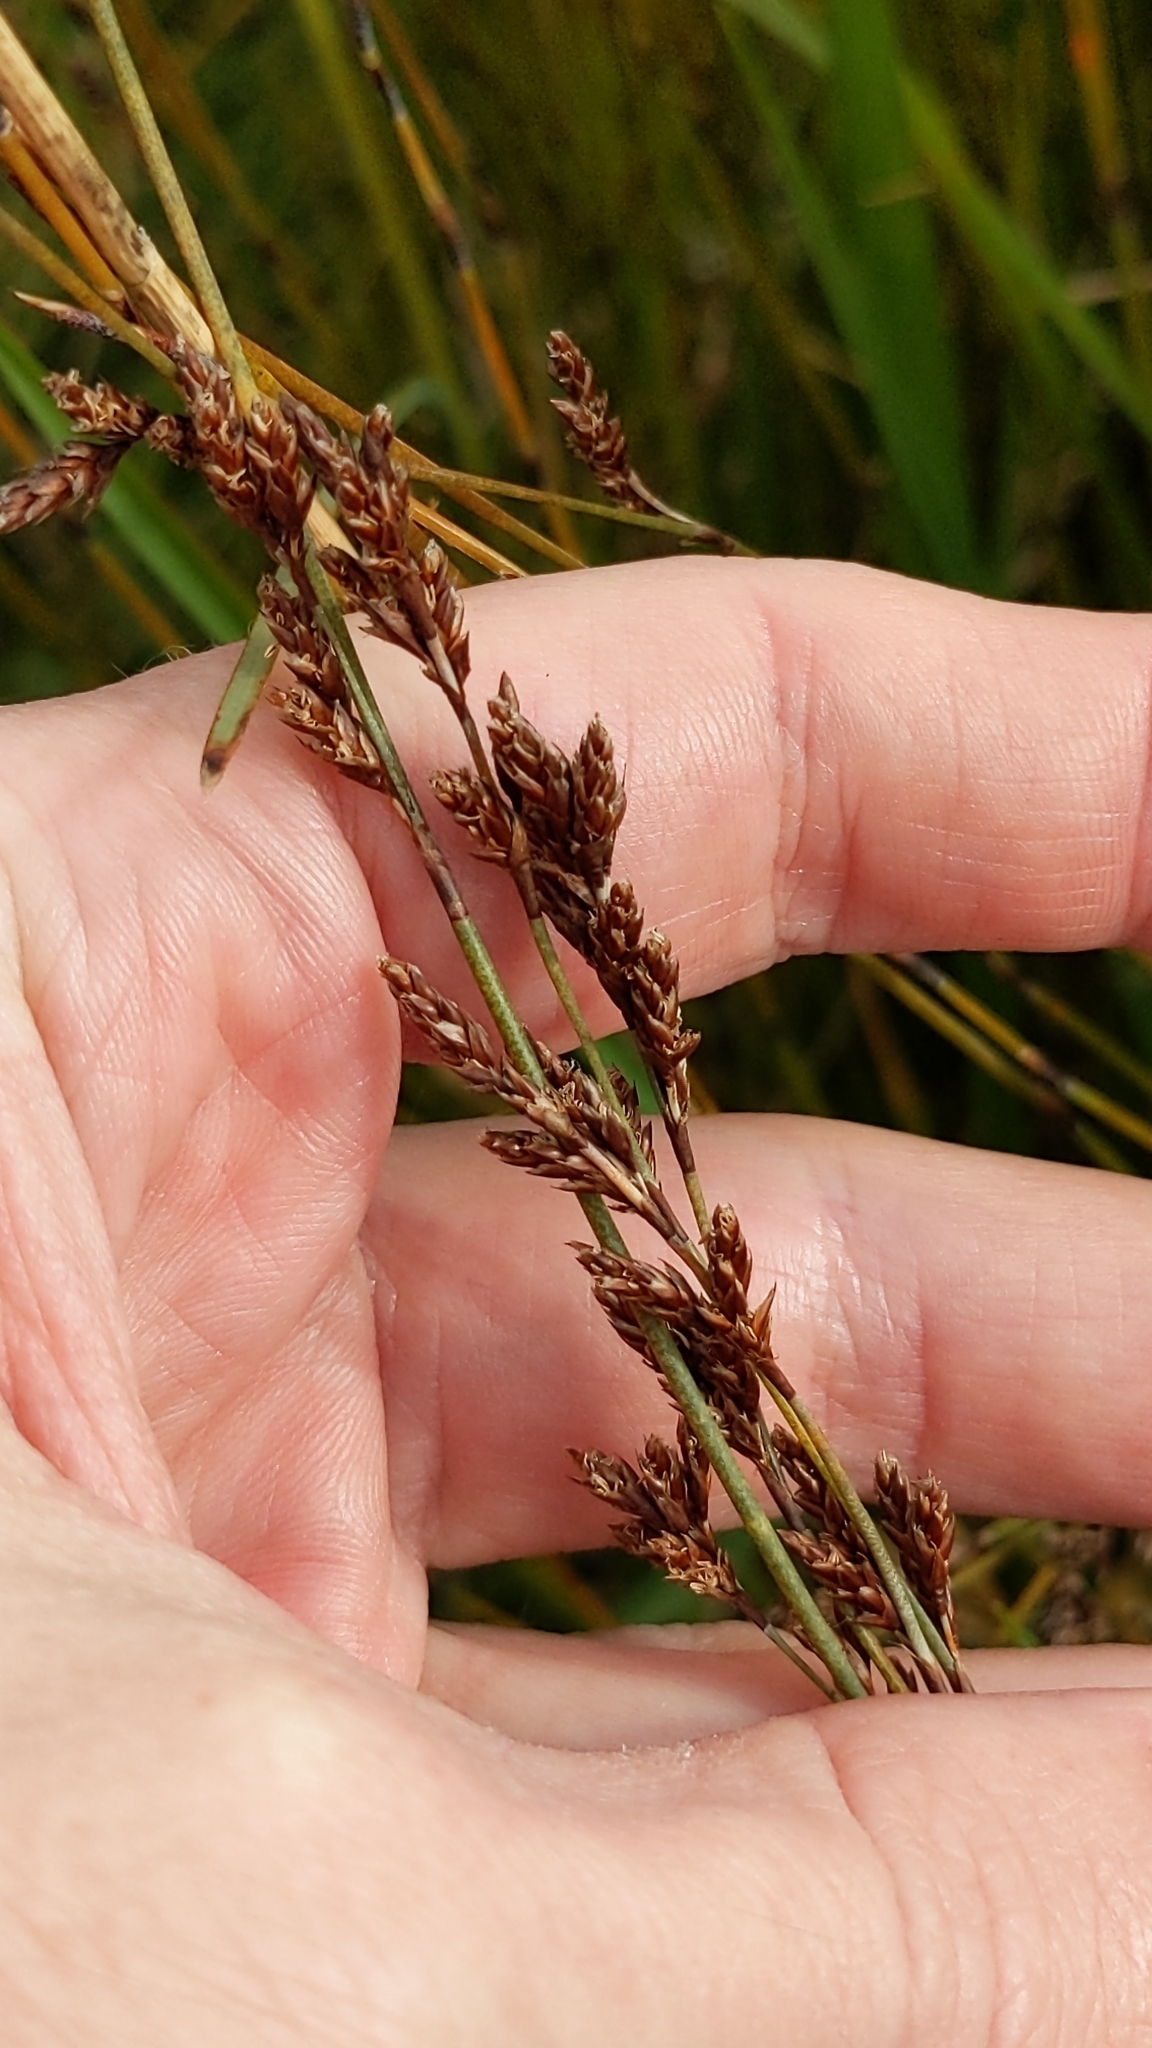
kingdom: Plantae
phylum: Tracheophyta
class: Liliopsida
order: Poales
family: Restionaceae
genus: Apodasmia
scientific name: Apodasmia similis
